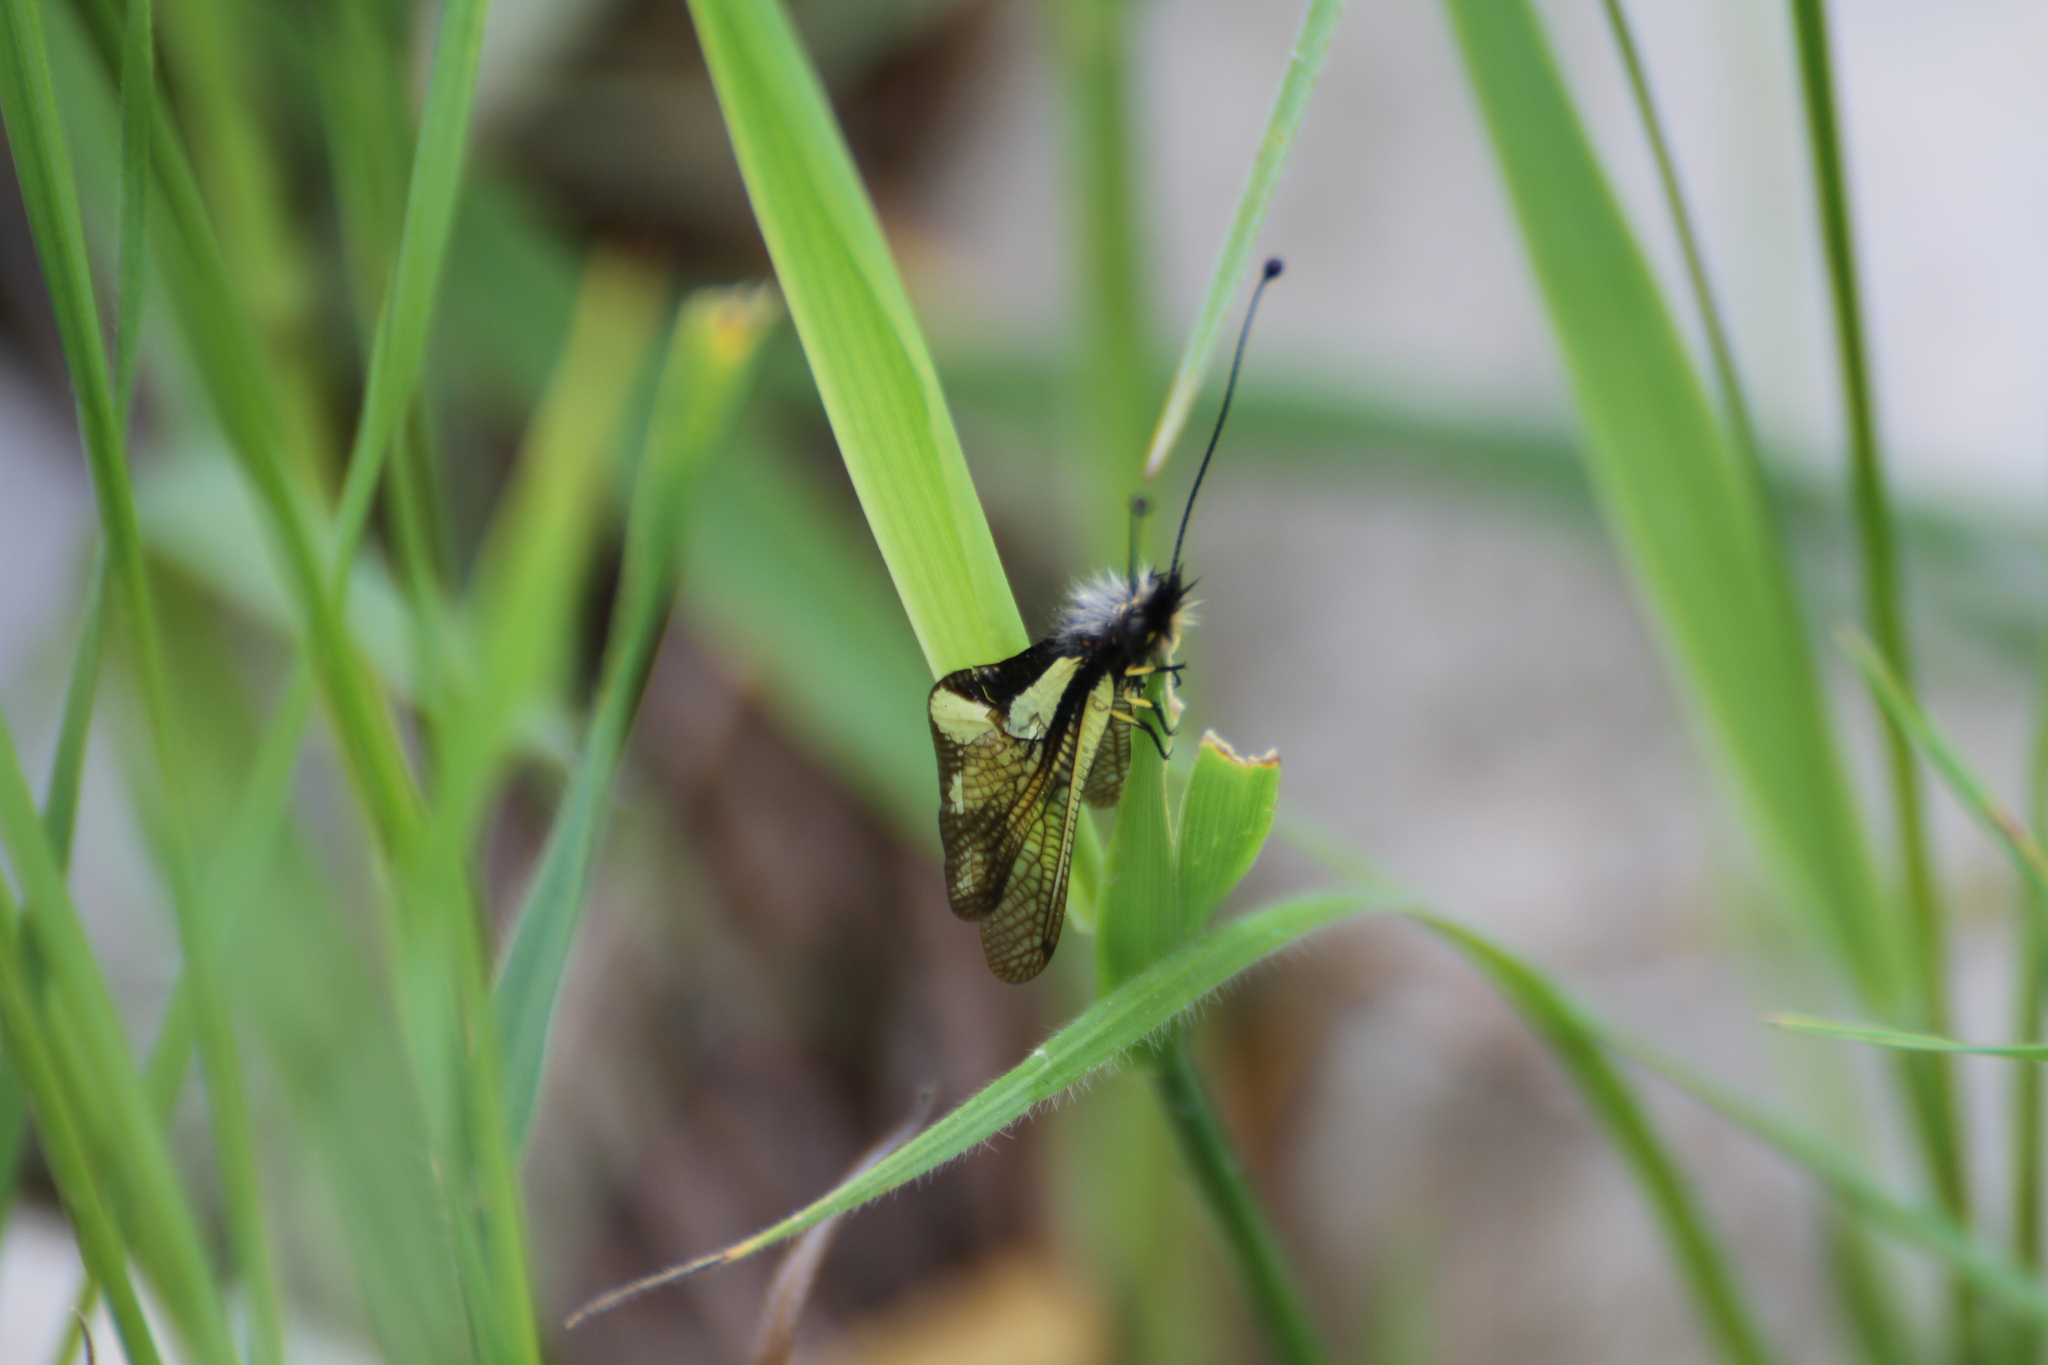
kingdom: Animalia
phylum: Arthropoda
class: Insecta
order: Neuroptera
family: Ascalaphidae
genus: Libelloides
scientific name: Libelloides coccajus
